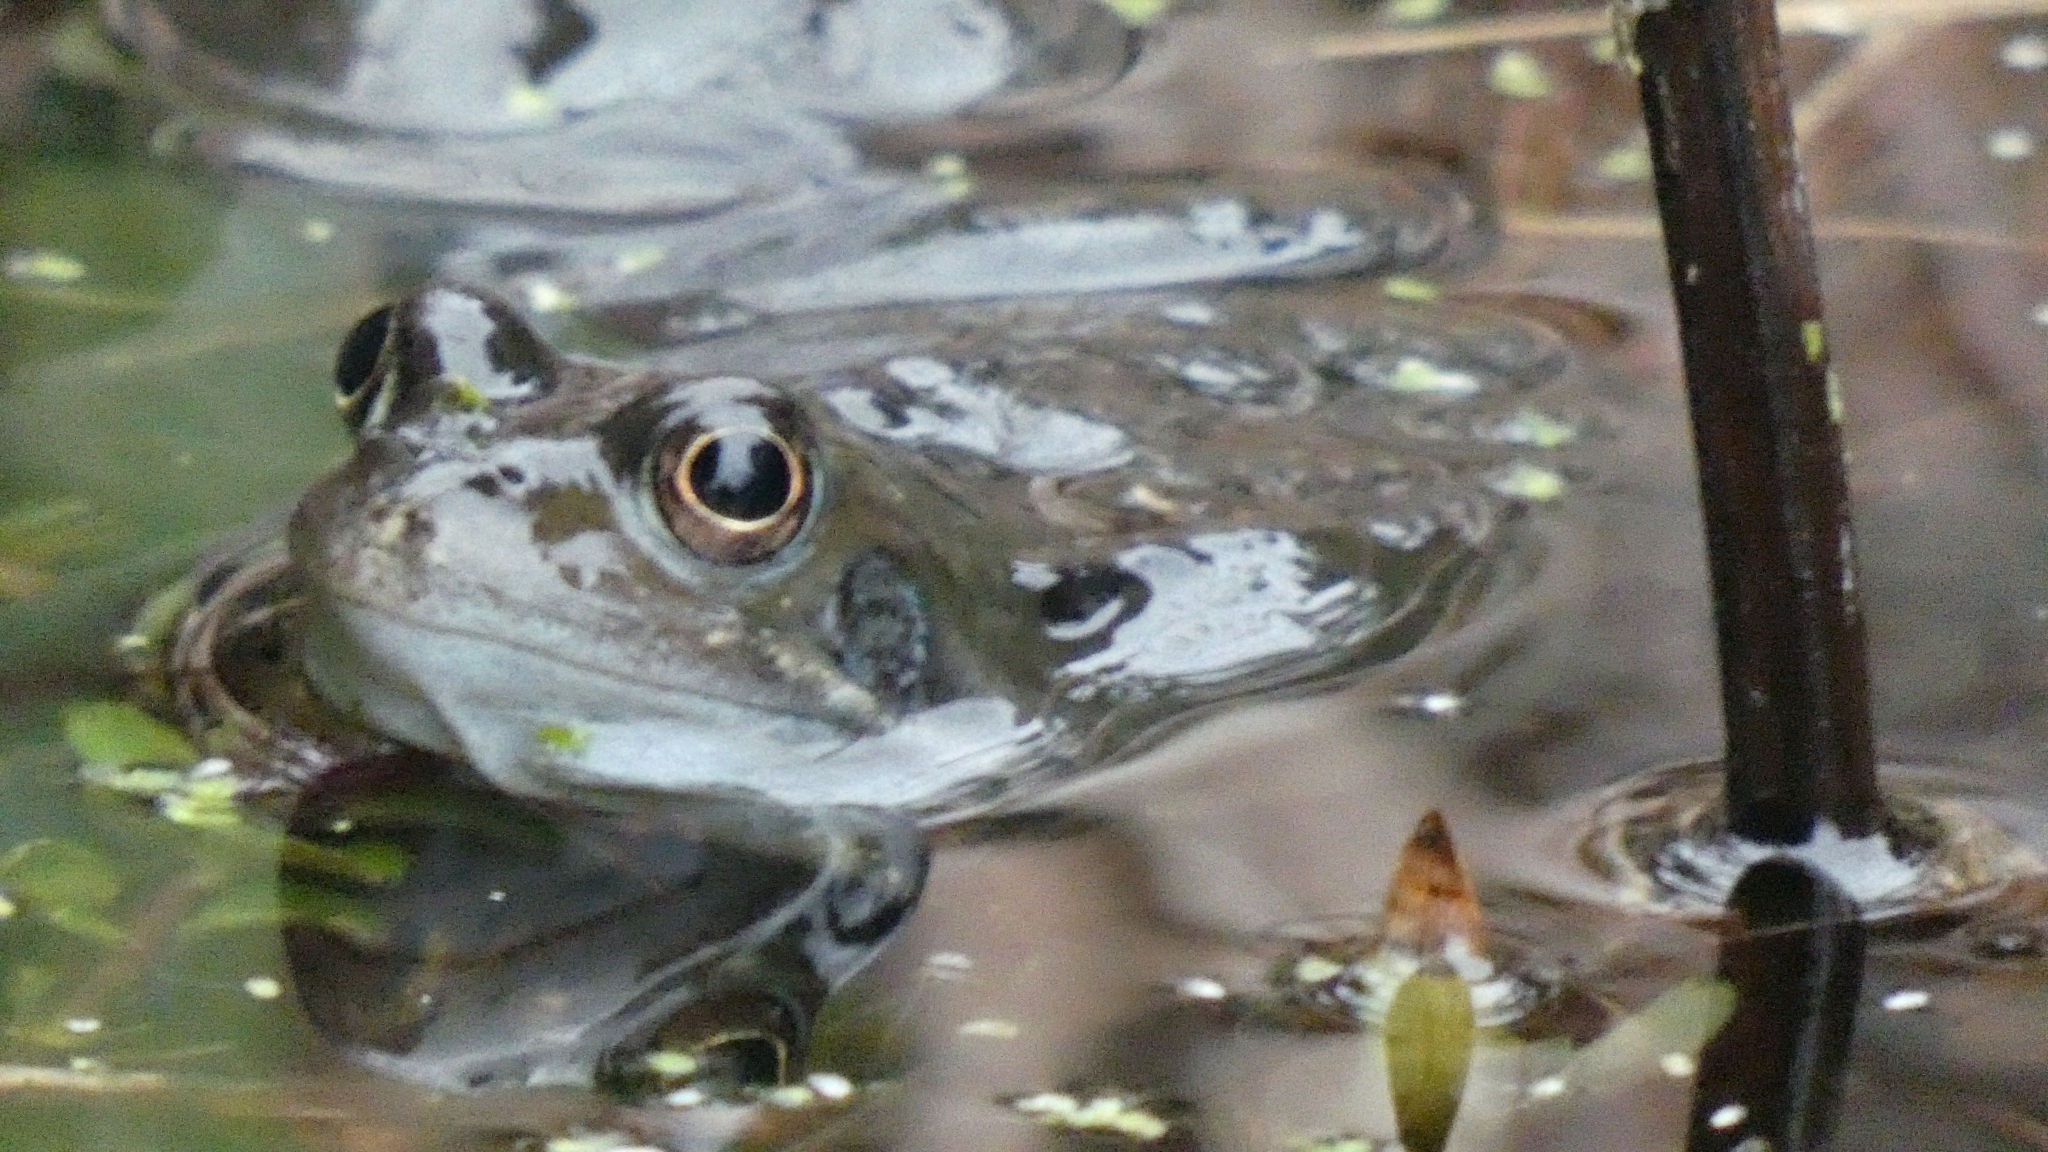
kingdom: Animalia
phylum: Chordata
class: Amphibia
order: Anura
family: Ranidae
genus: Rana
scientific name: Rana temporaria
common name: Common frog
